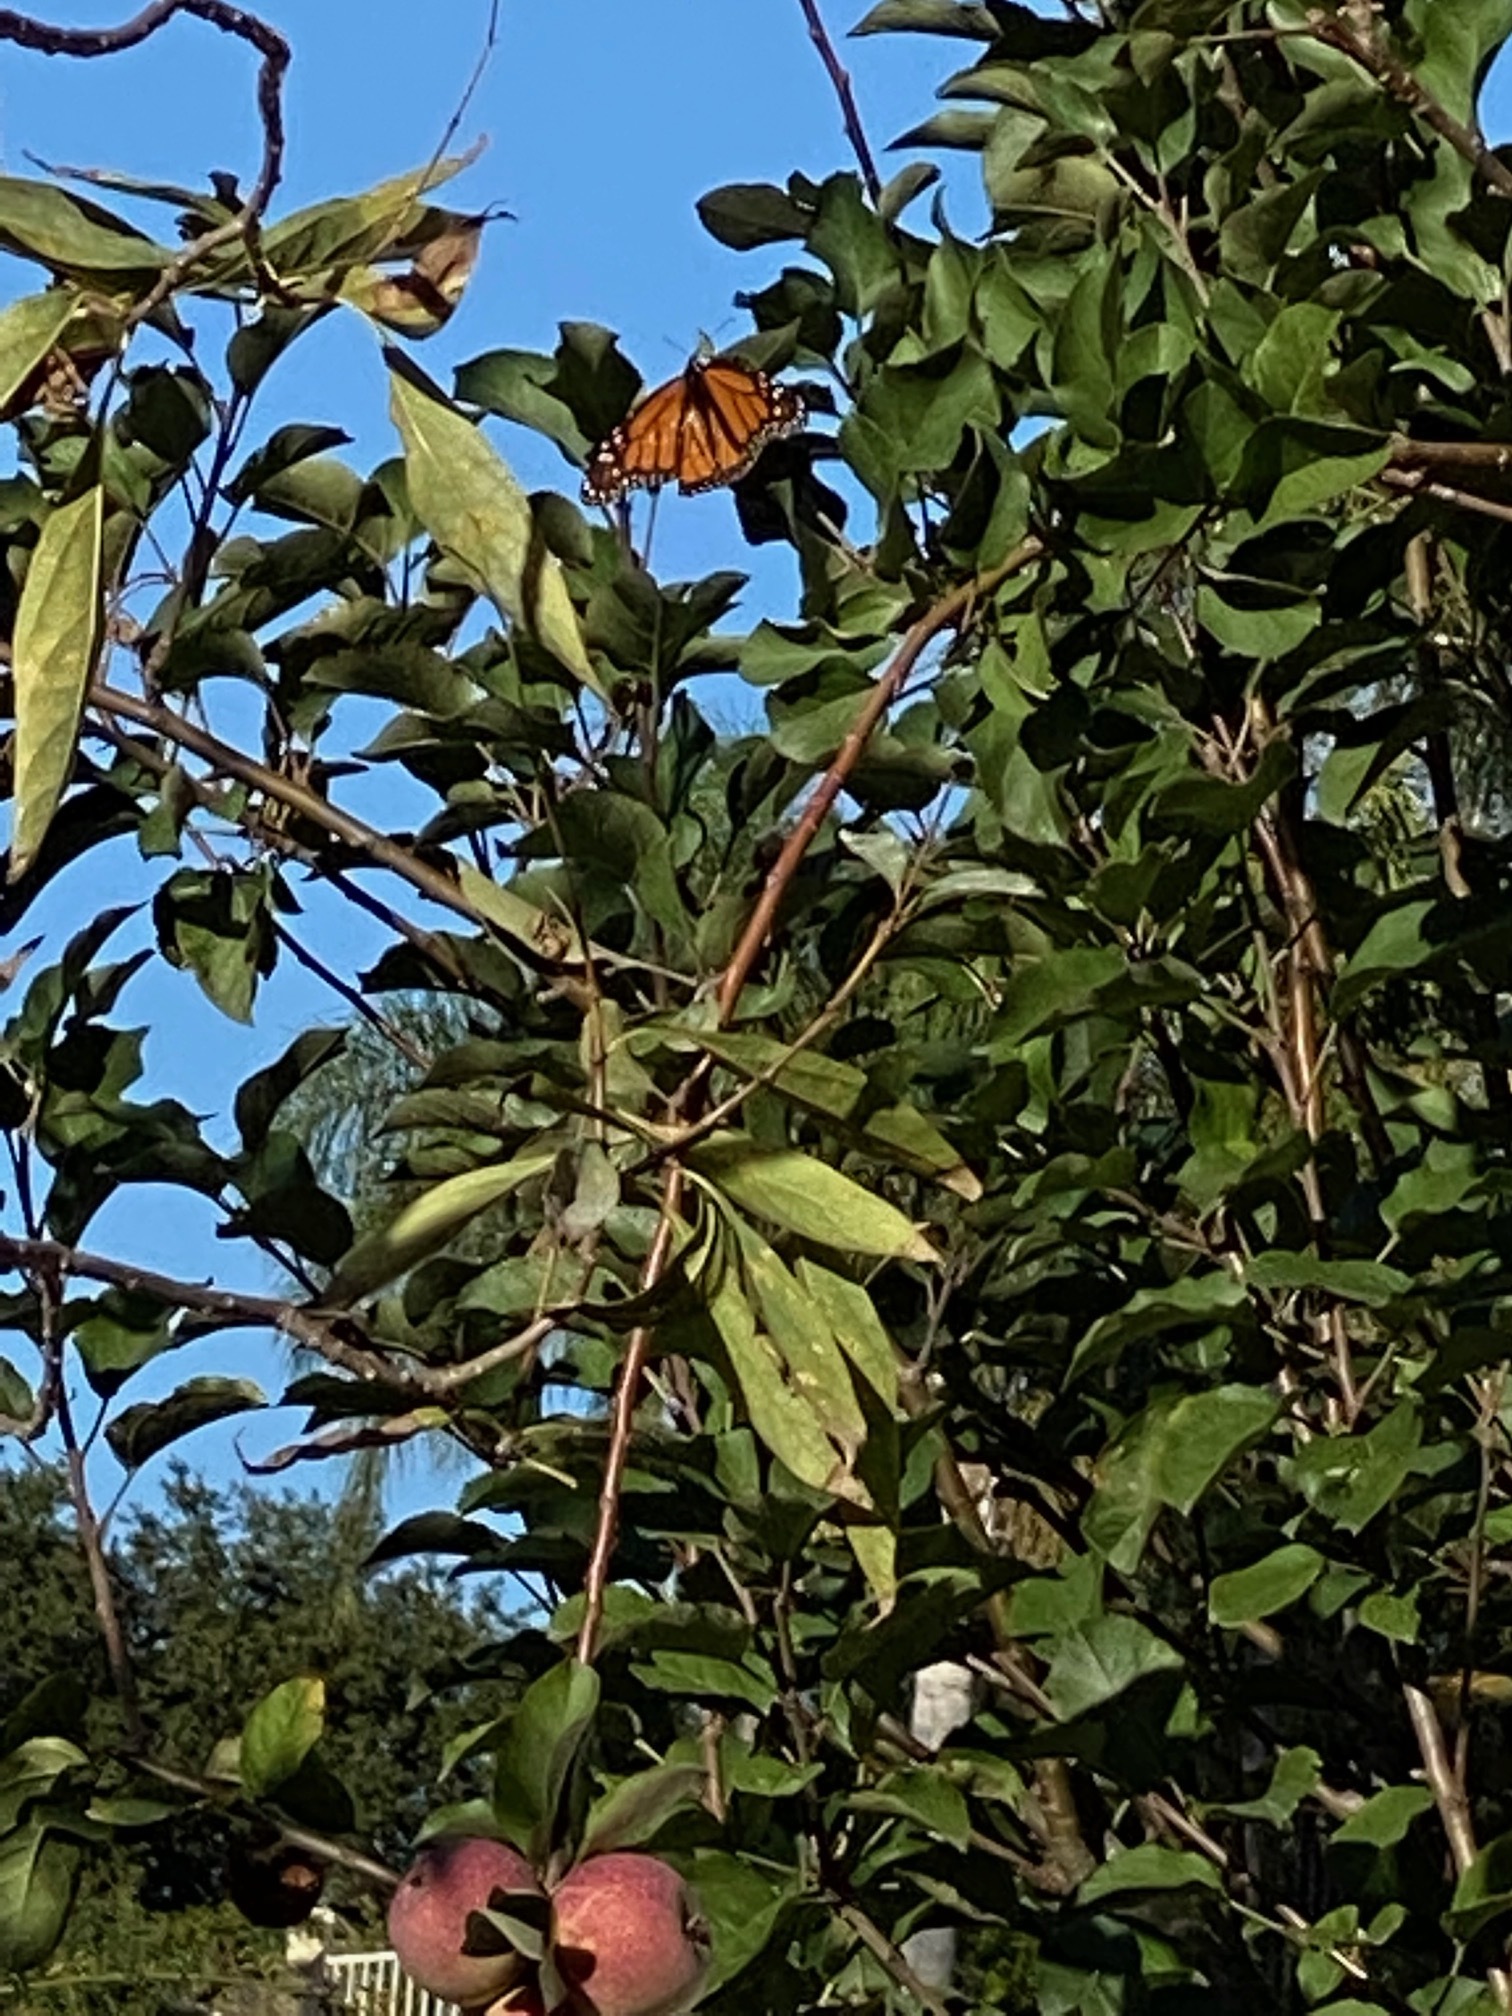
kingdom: Animalia
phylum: Arthropoda
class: Insecta
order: Lepidoptera
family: Nymphalidae
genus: Danaus
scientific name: Danaus plexippus
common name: Monarch
